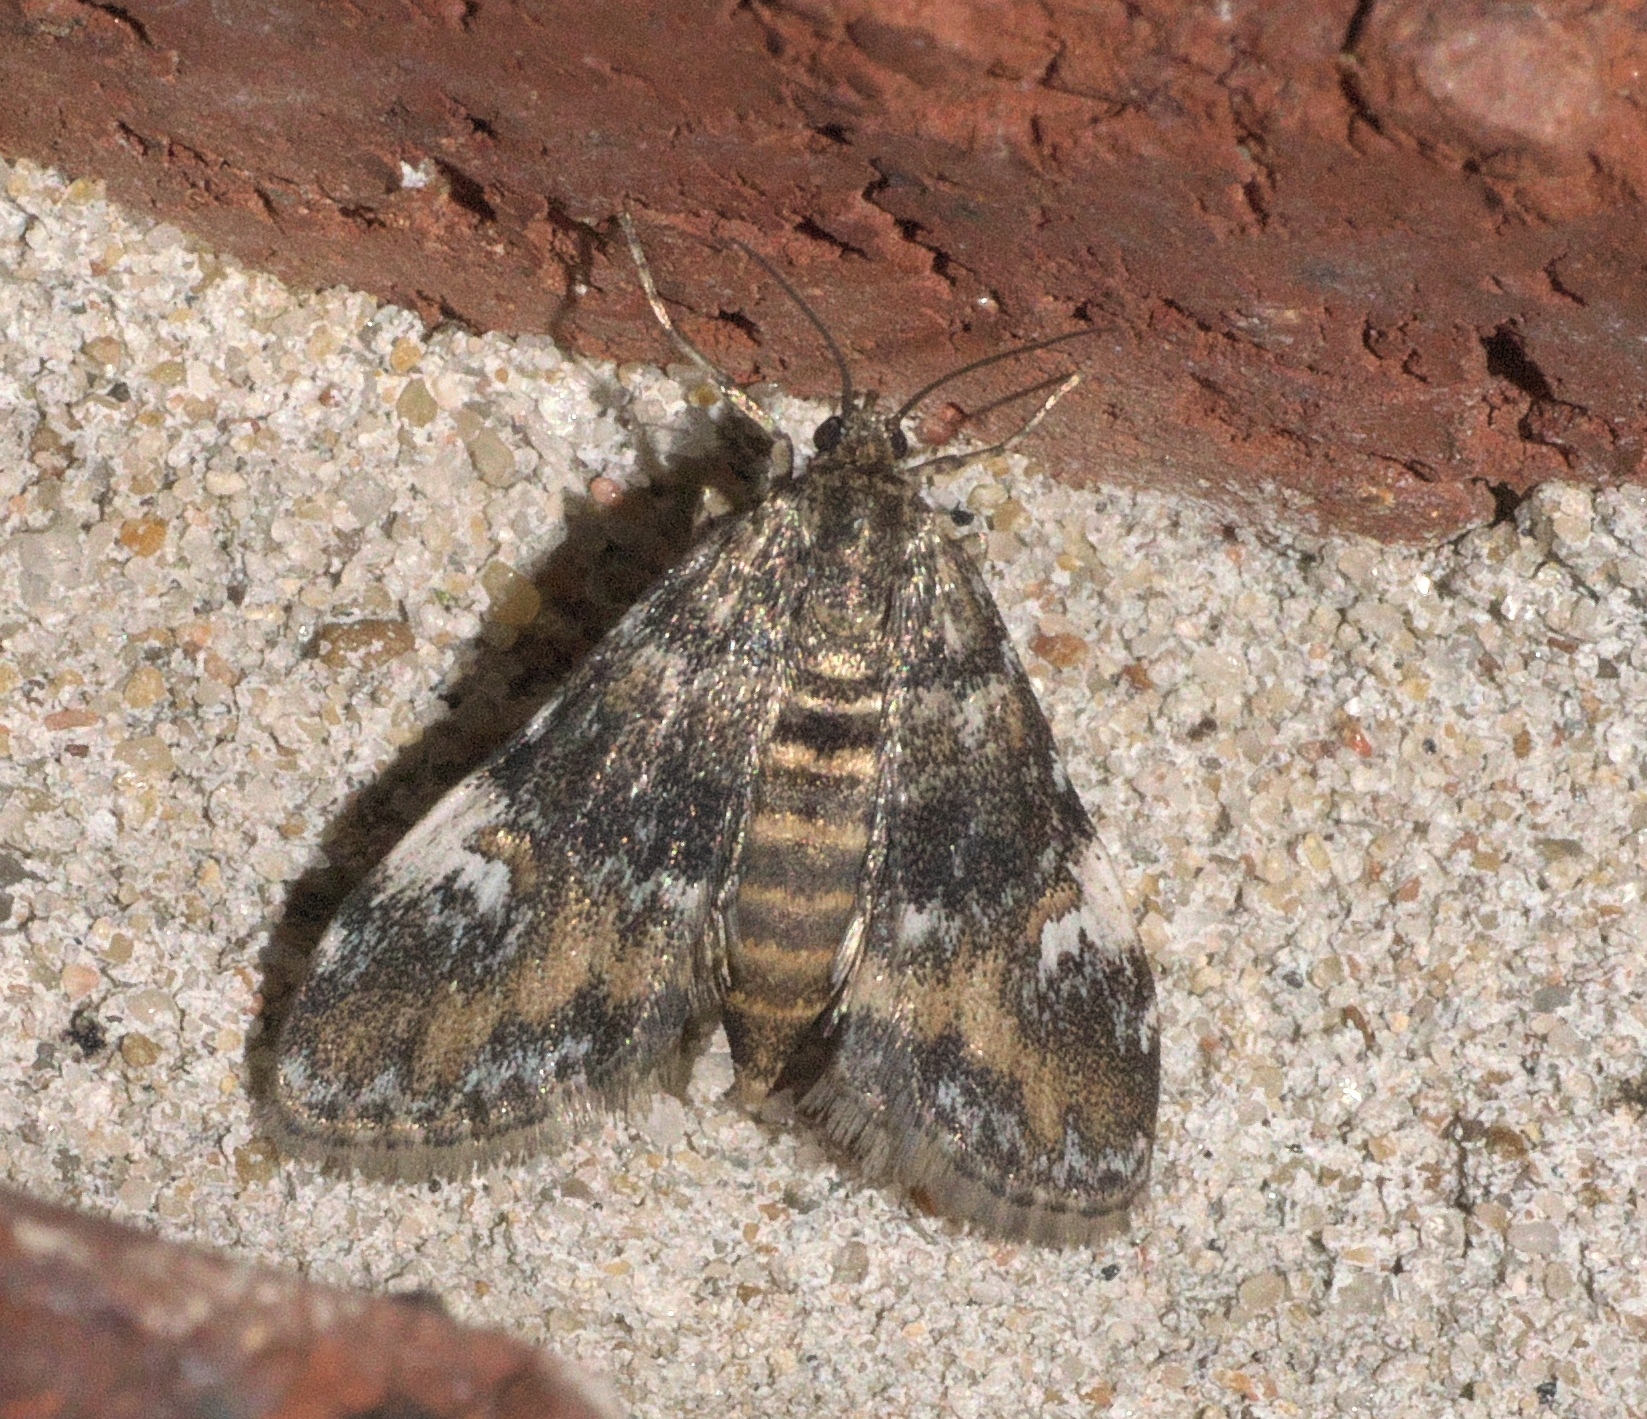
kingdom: Animalia
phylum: Arthropoda
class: Insecta
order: Lepidoptera
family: Crambidae
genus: Elophila
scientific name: Elophila obliteralis
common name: Waterlily leafcutter moth
